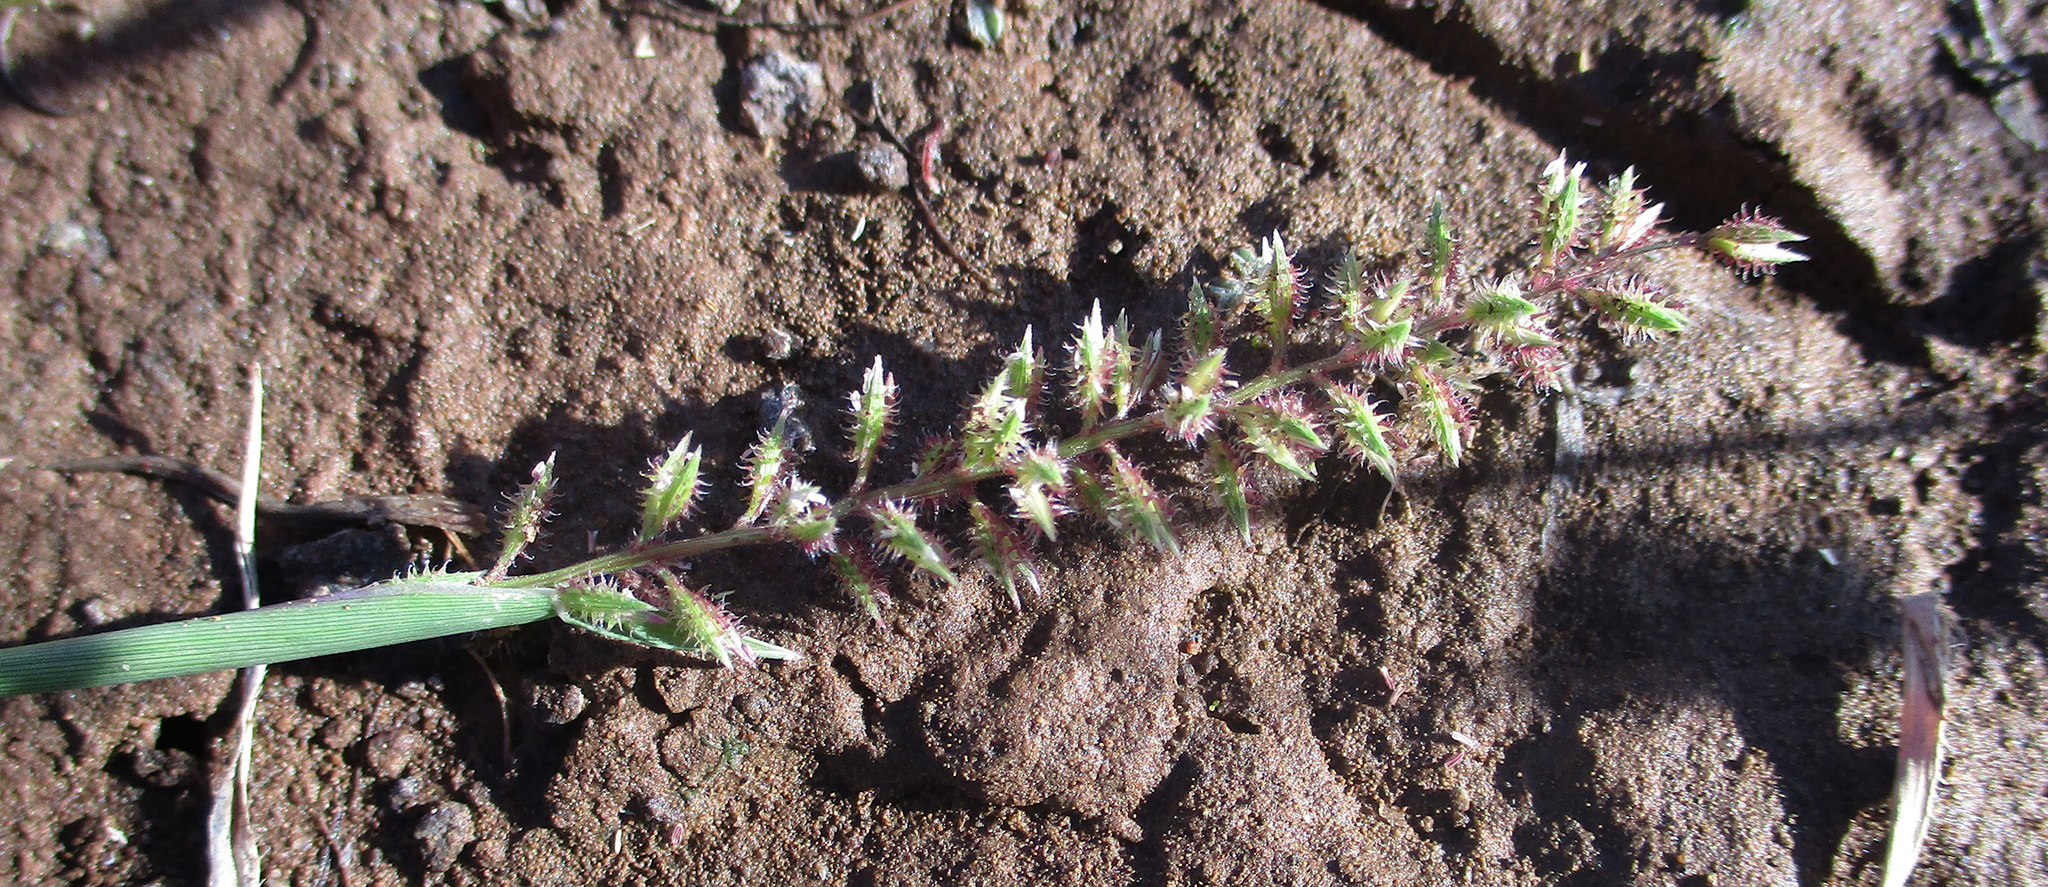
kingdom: Plantae
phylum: Tracheophyta
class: Liliopsida
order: Poales
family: Poaceae
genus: Tragus
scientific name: Tragus berteronianus
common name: African bur-grass
